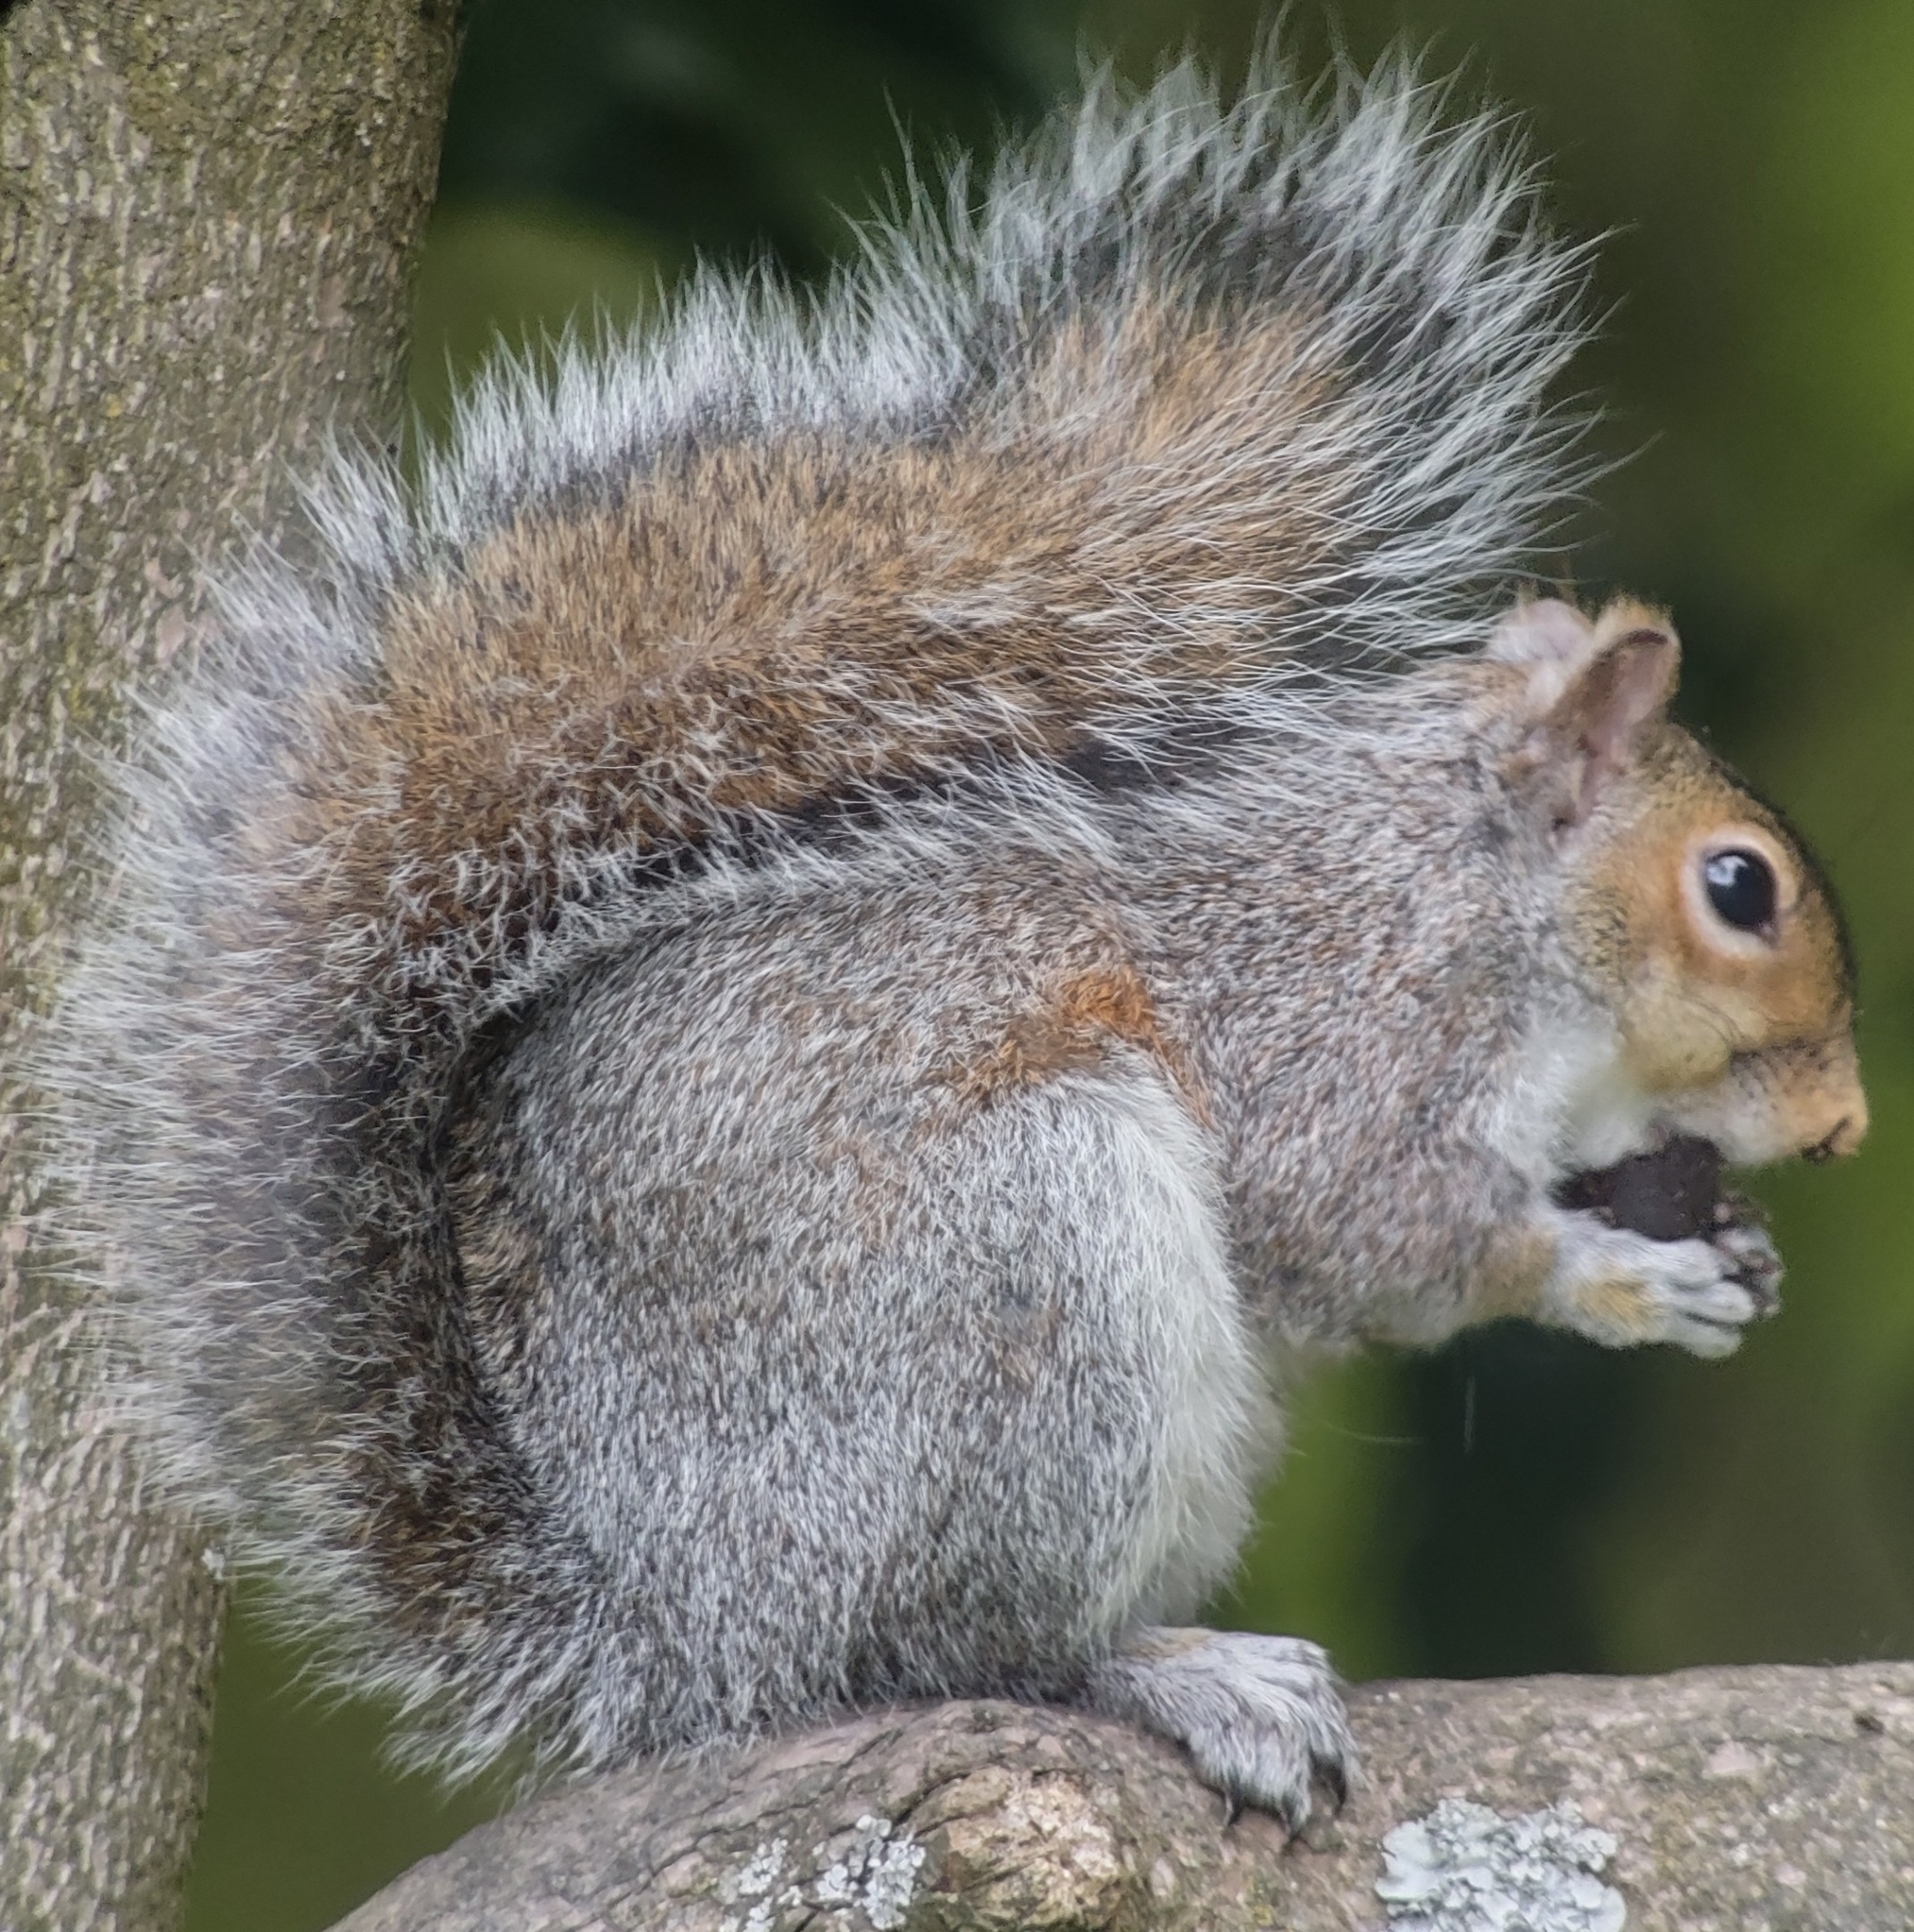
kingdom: Animalia
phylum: Chordata
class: Mammalia
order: Rodentia
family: Sciuridae
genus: Sciurus
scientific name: Sciurus carolinensis
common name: Eastern gray squirrel
